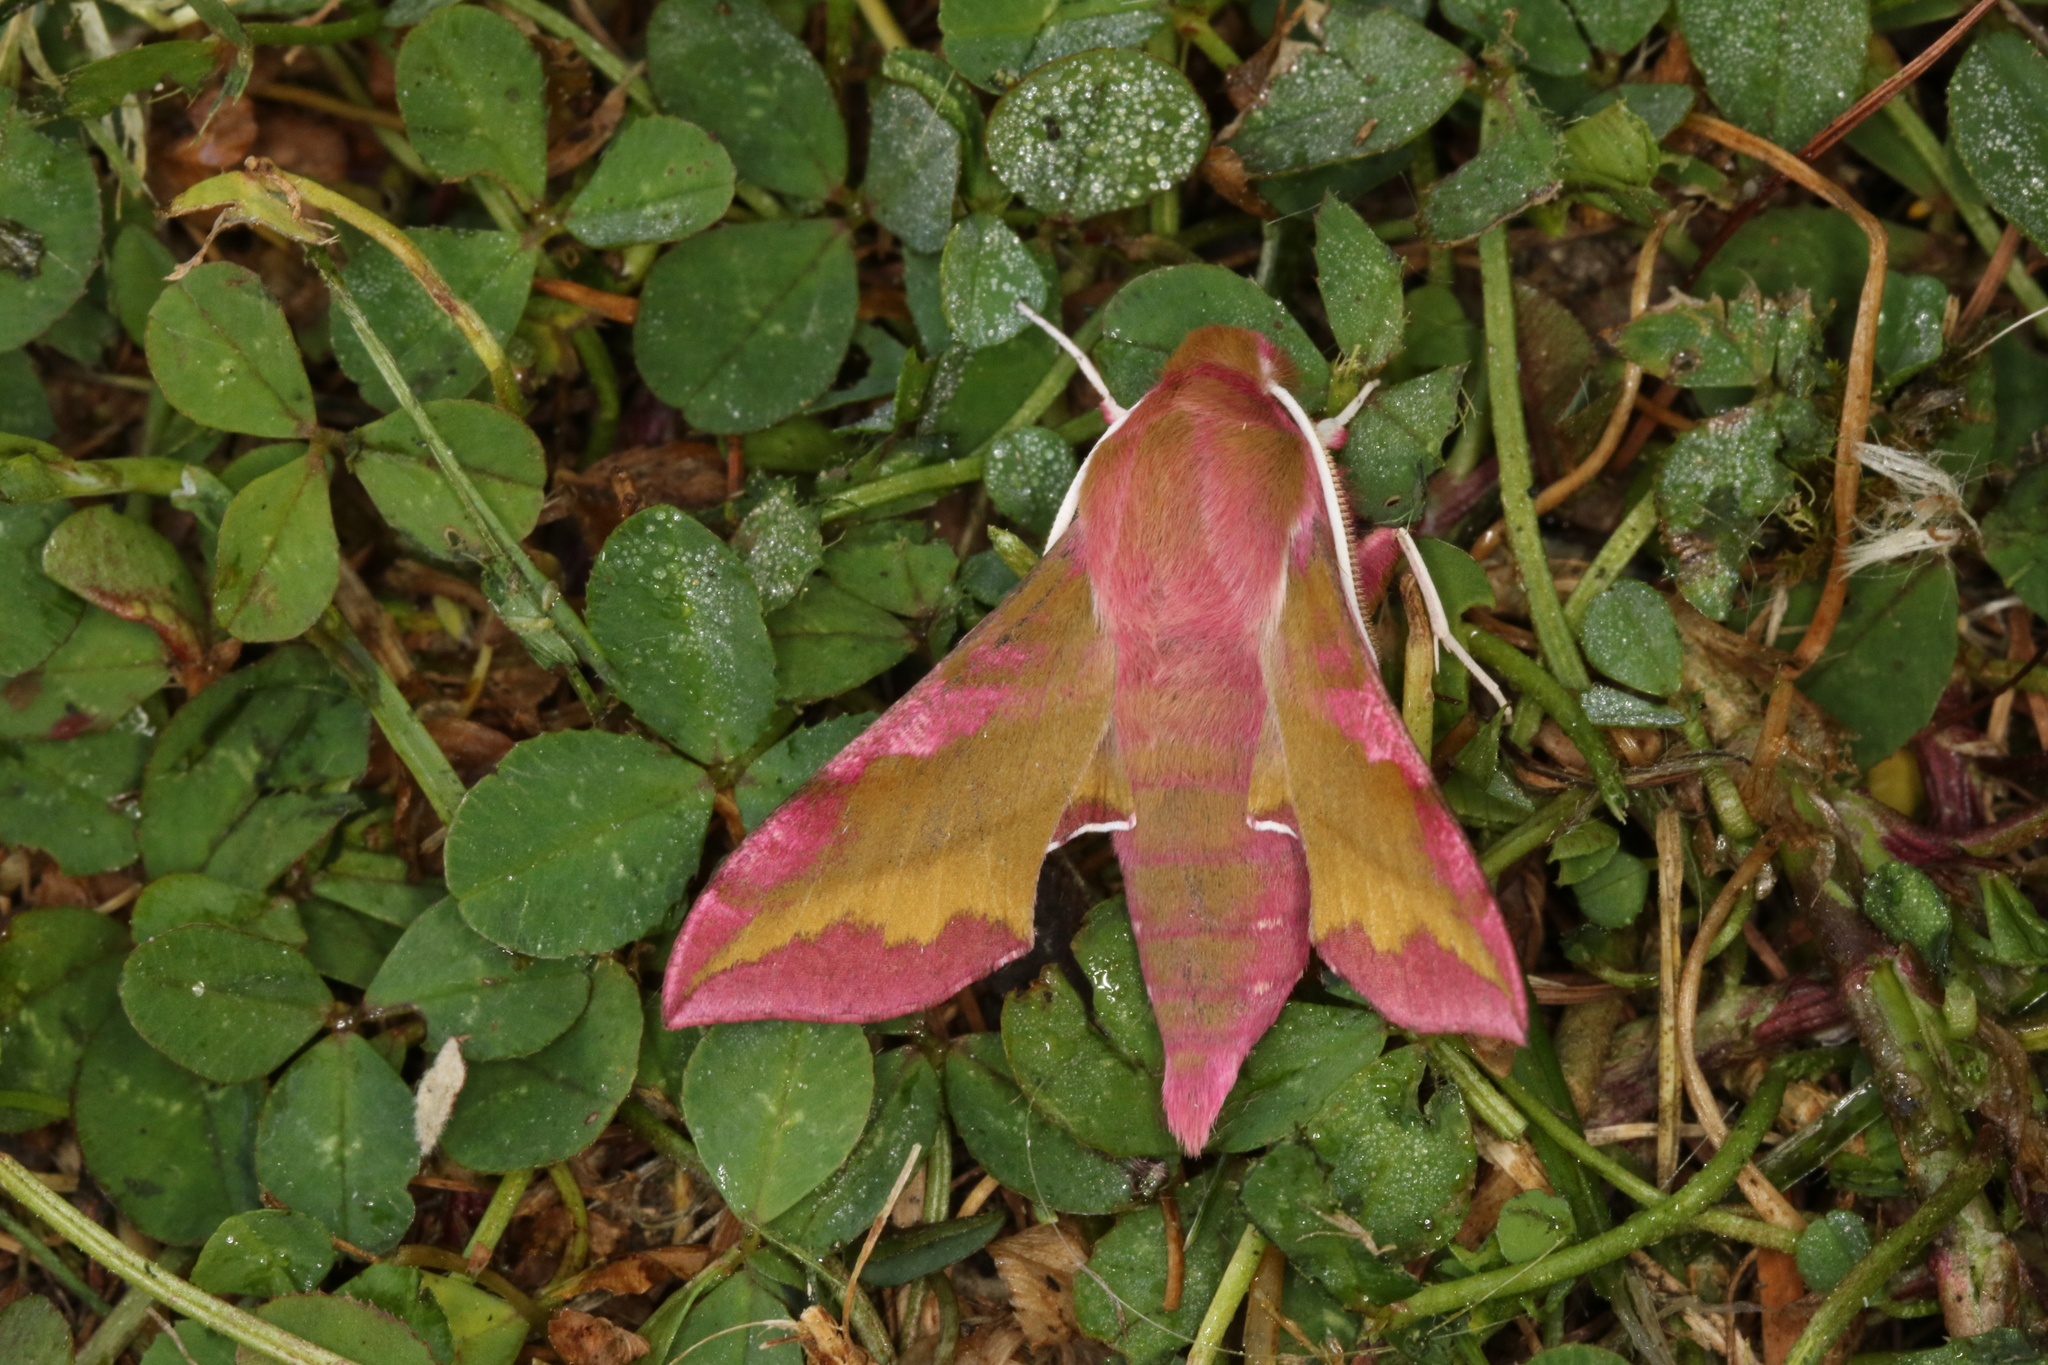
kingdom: Animalia
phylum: Arthropoda
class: Insecta
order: Lepidoptera
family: Sphingidae
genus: Deilephila
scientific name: Deilephila porcellus
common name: Small elephant hawk-moth
